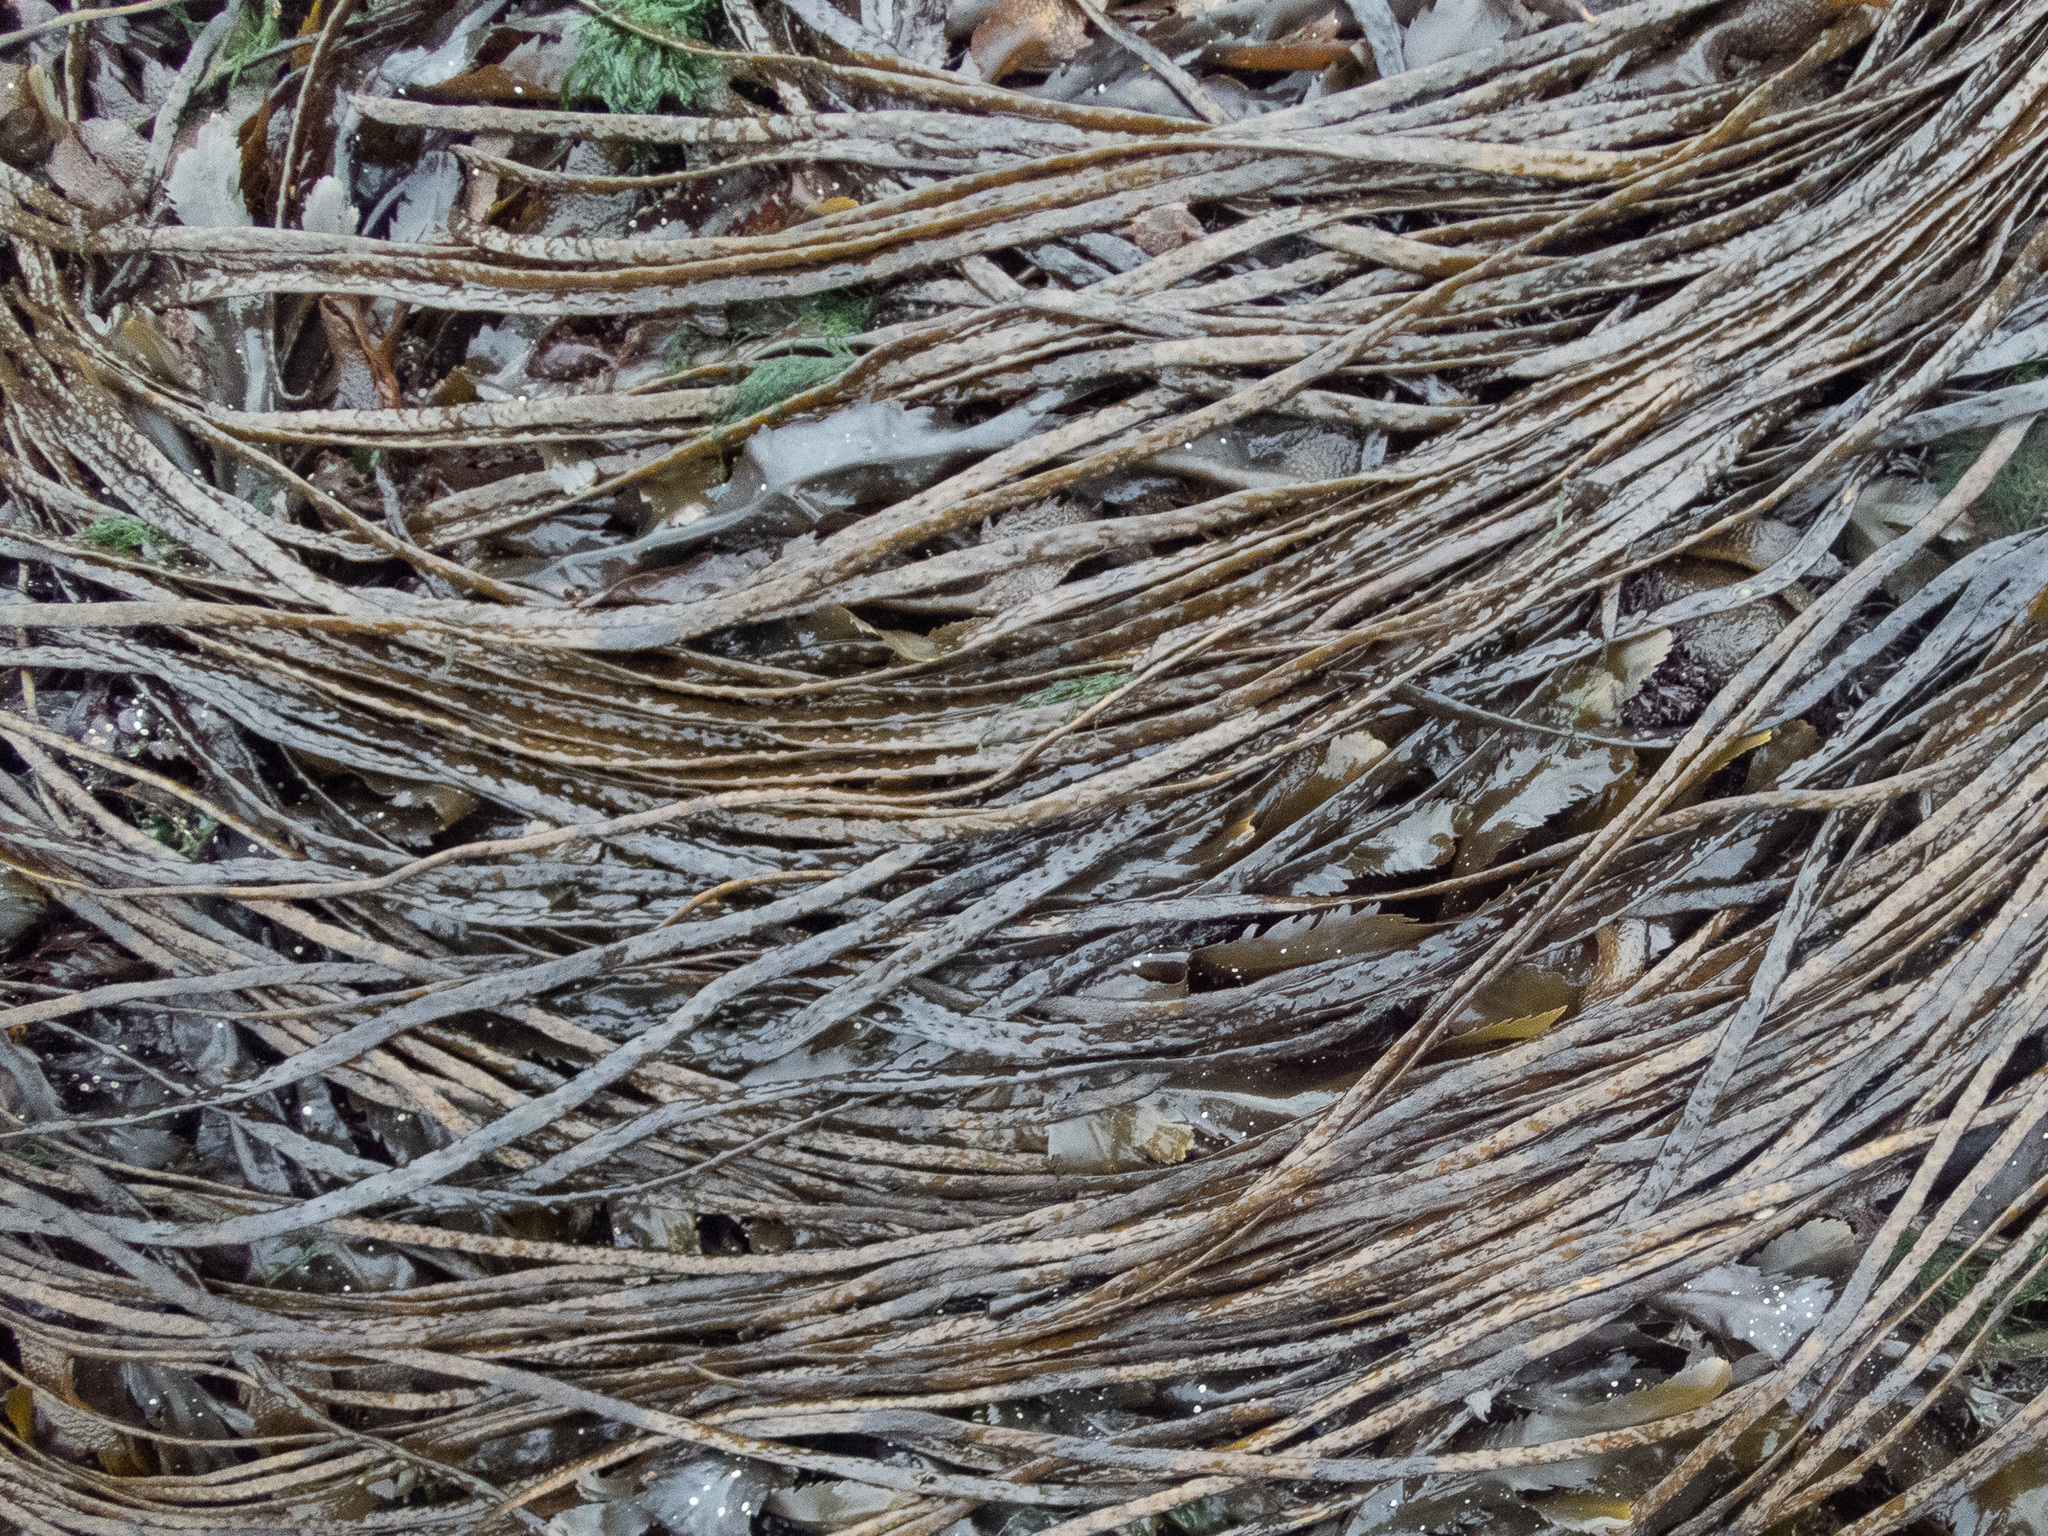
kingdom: Chromista
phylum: Ochrophyta
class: Phaeophyceae
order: Fucales
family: Himanthaliaceae
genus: Himanthalia
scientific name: Himanthalia elongata
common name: Sea-thong
